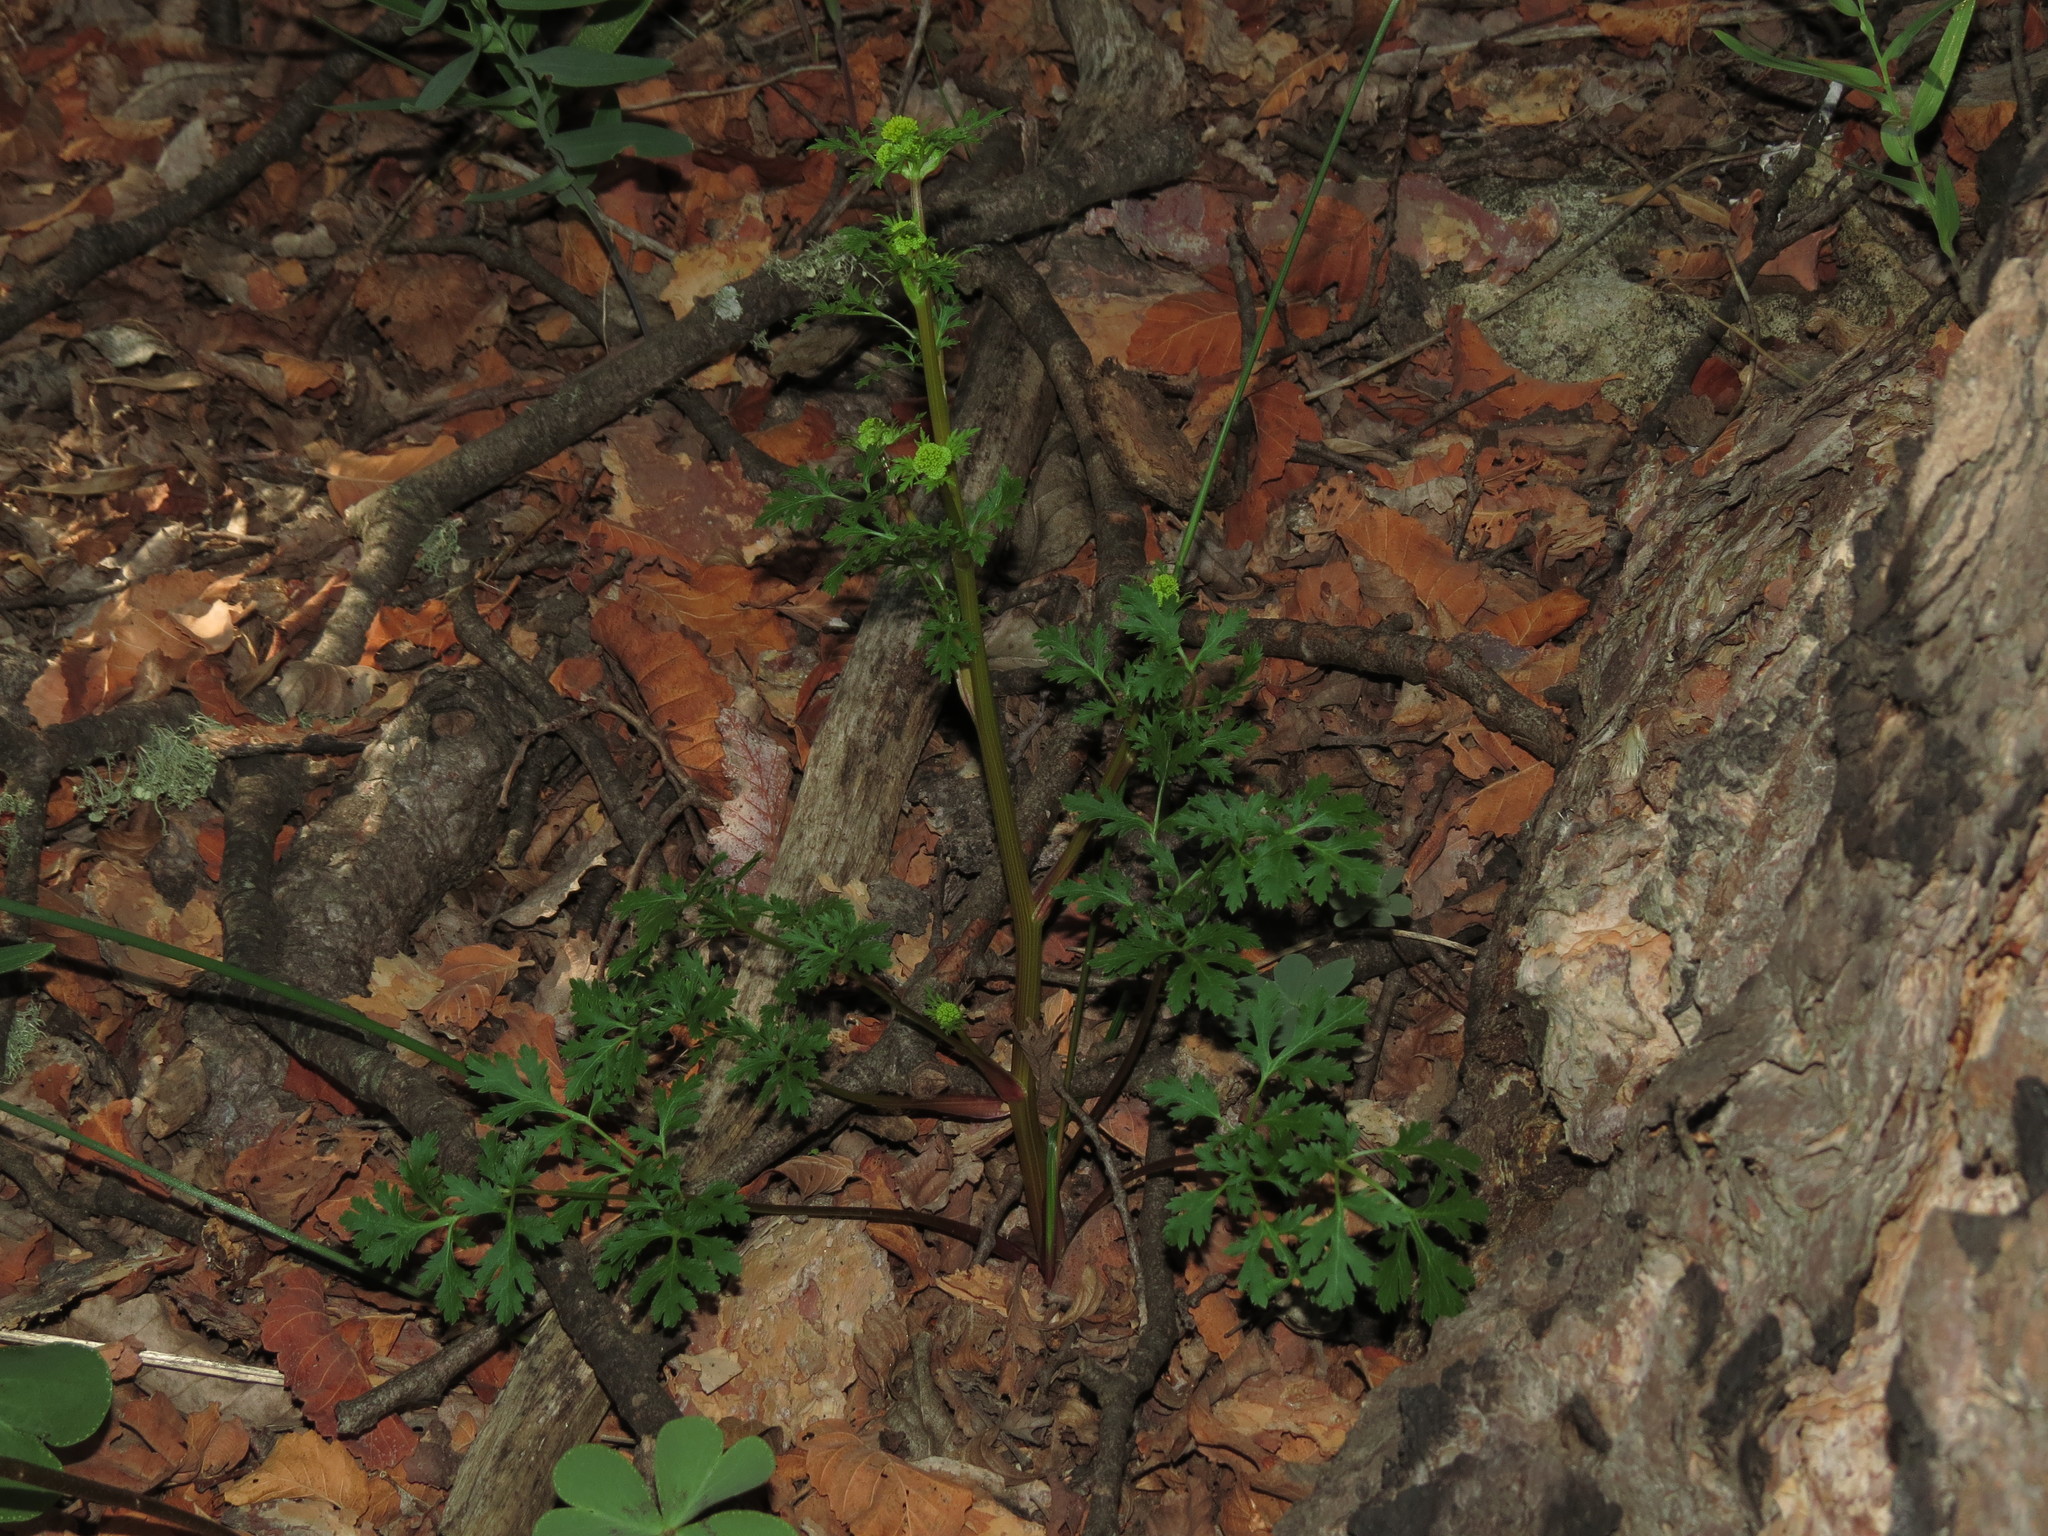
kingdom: Plantae
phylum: Tracheophyta
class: Magnoliopsida
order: Apiales
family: Apiaceae
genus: Sanicula
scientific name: Sanicula graveolens
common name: Sierra sanicle
